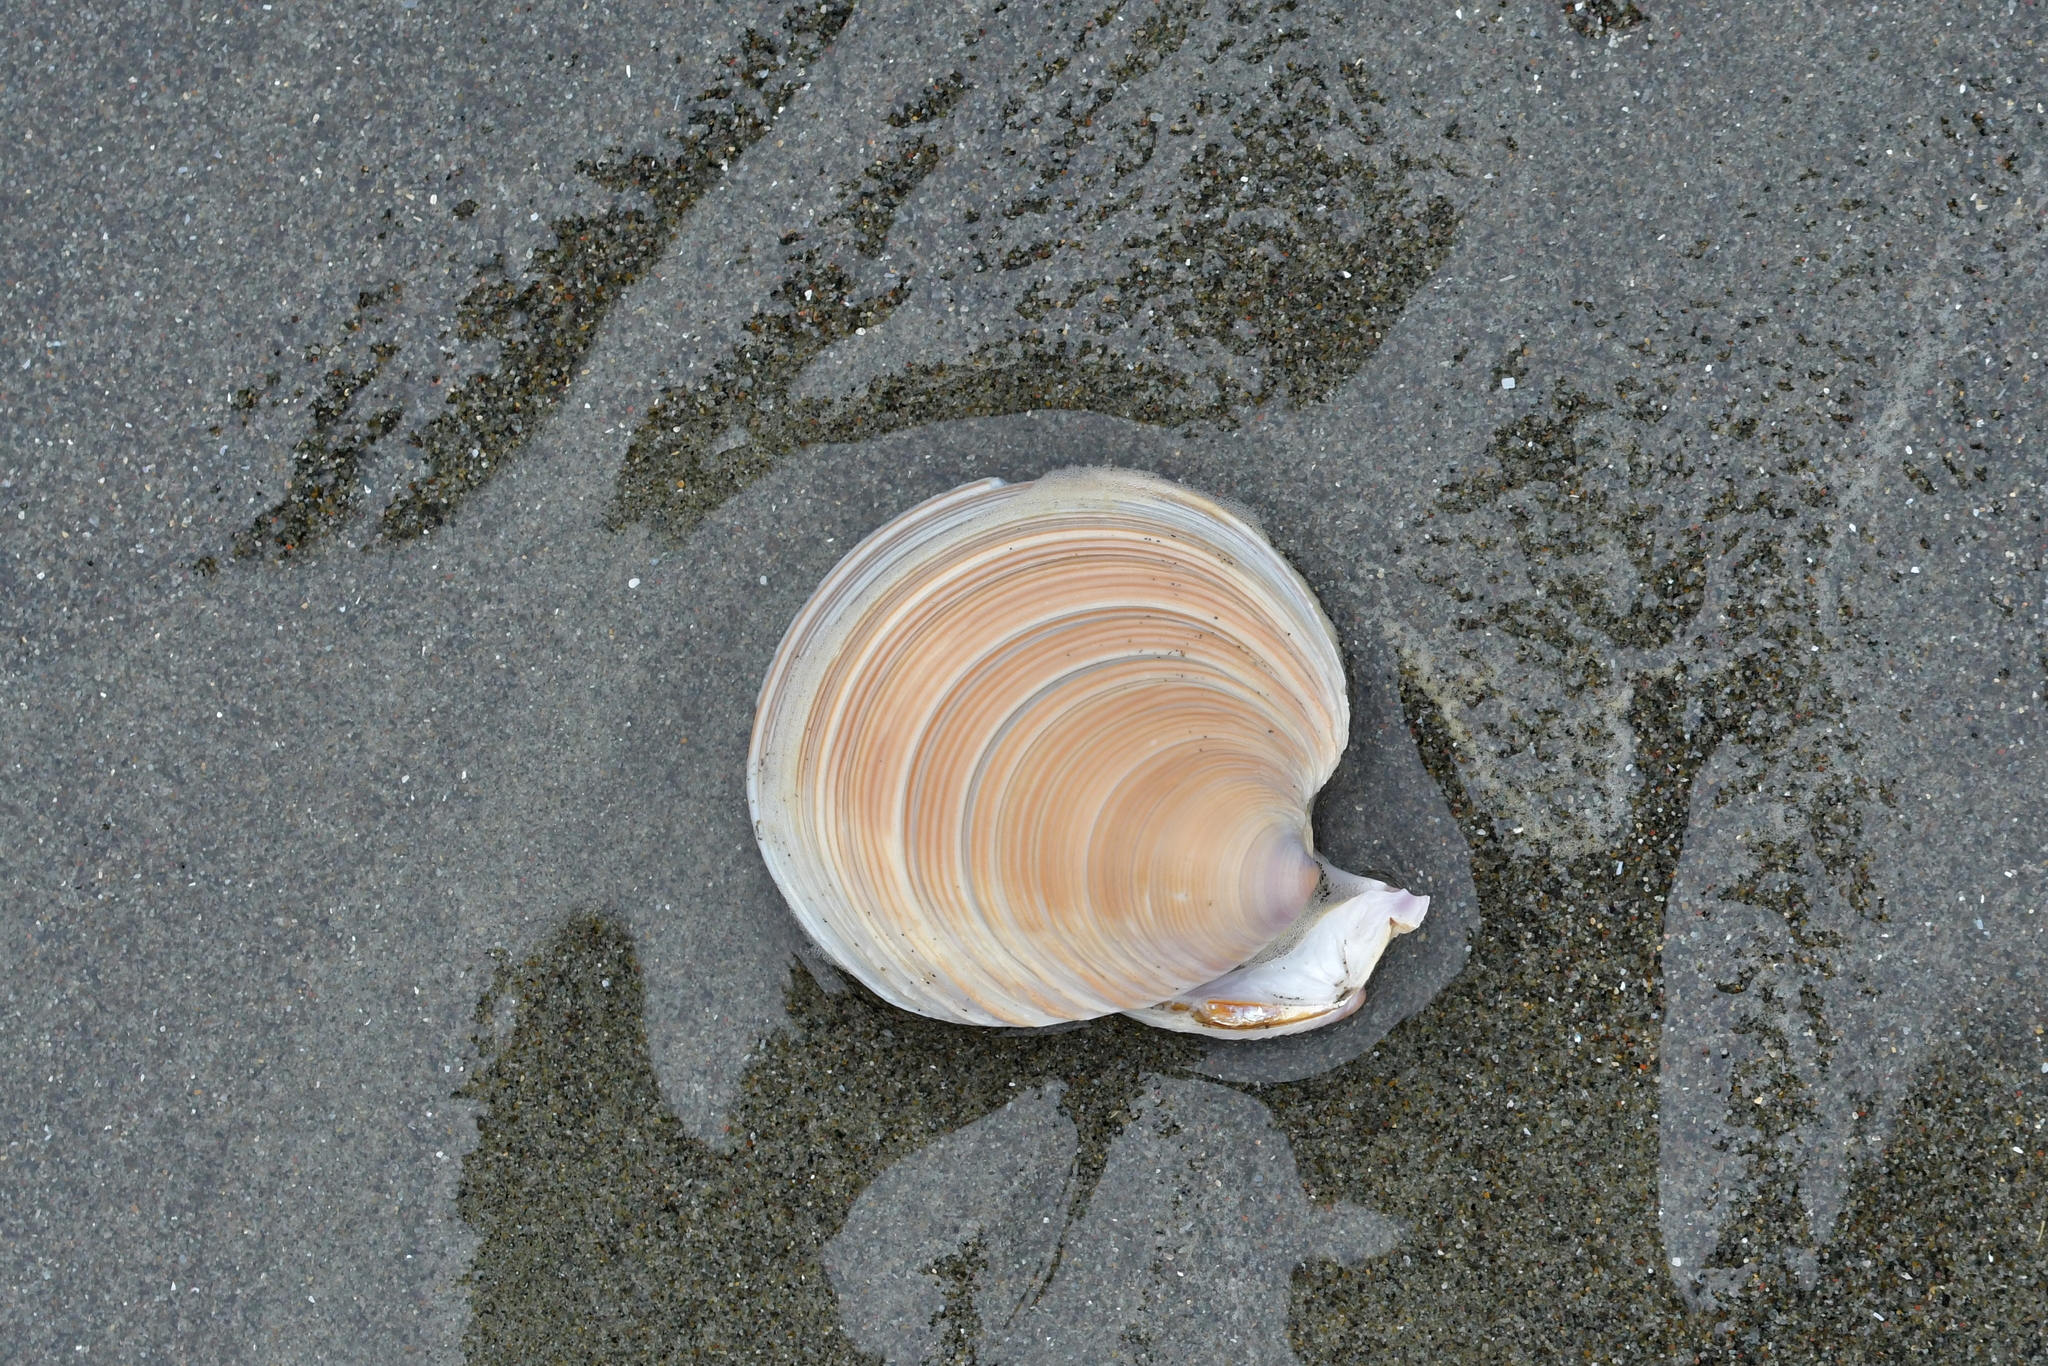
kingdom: Animalia
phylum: Mollusca
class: Bivalvia
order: Venerida
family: Veneridae
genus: Dosinia
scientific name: Dosinia anus
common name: Old-woman dosinia
